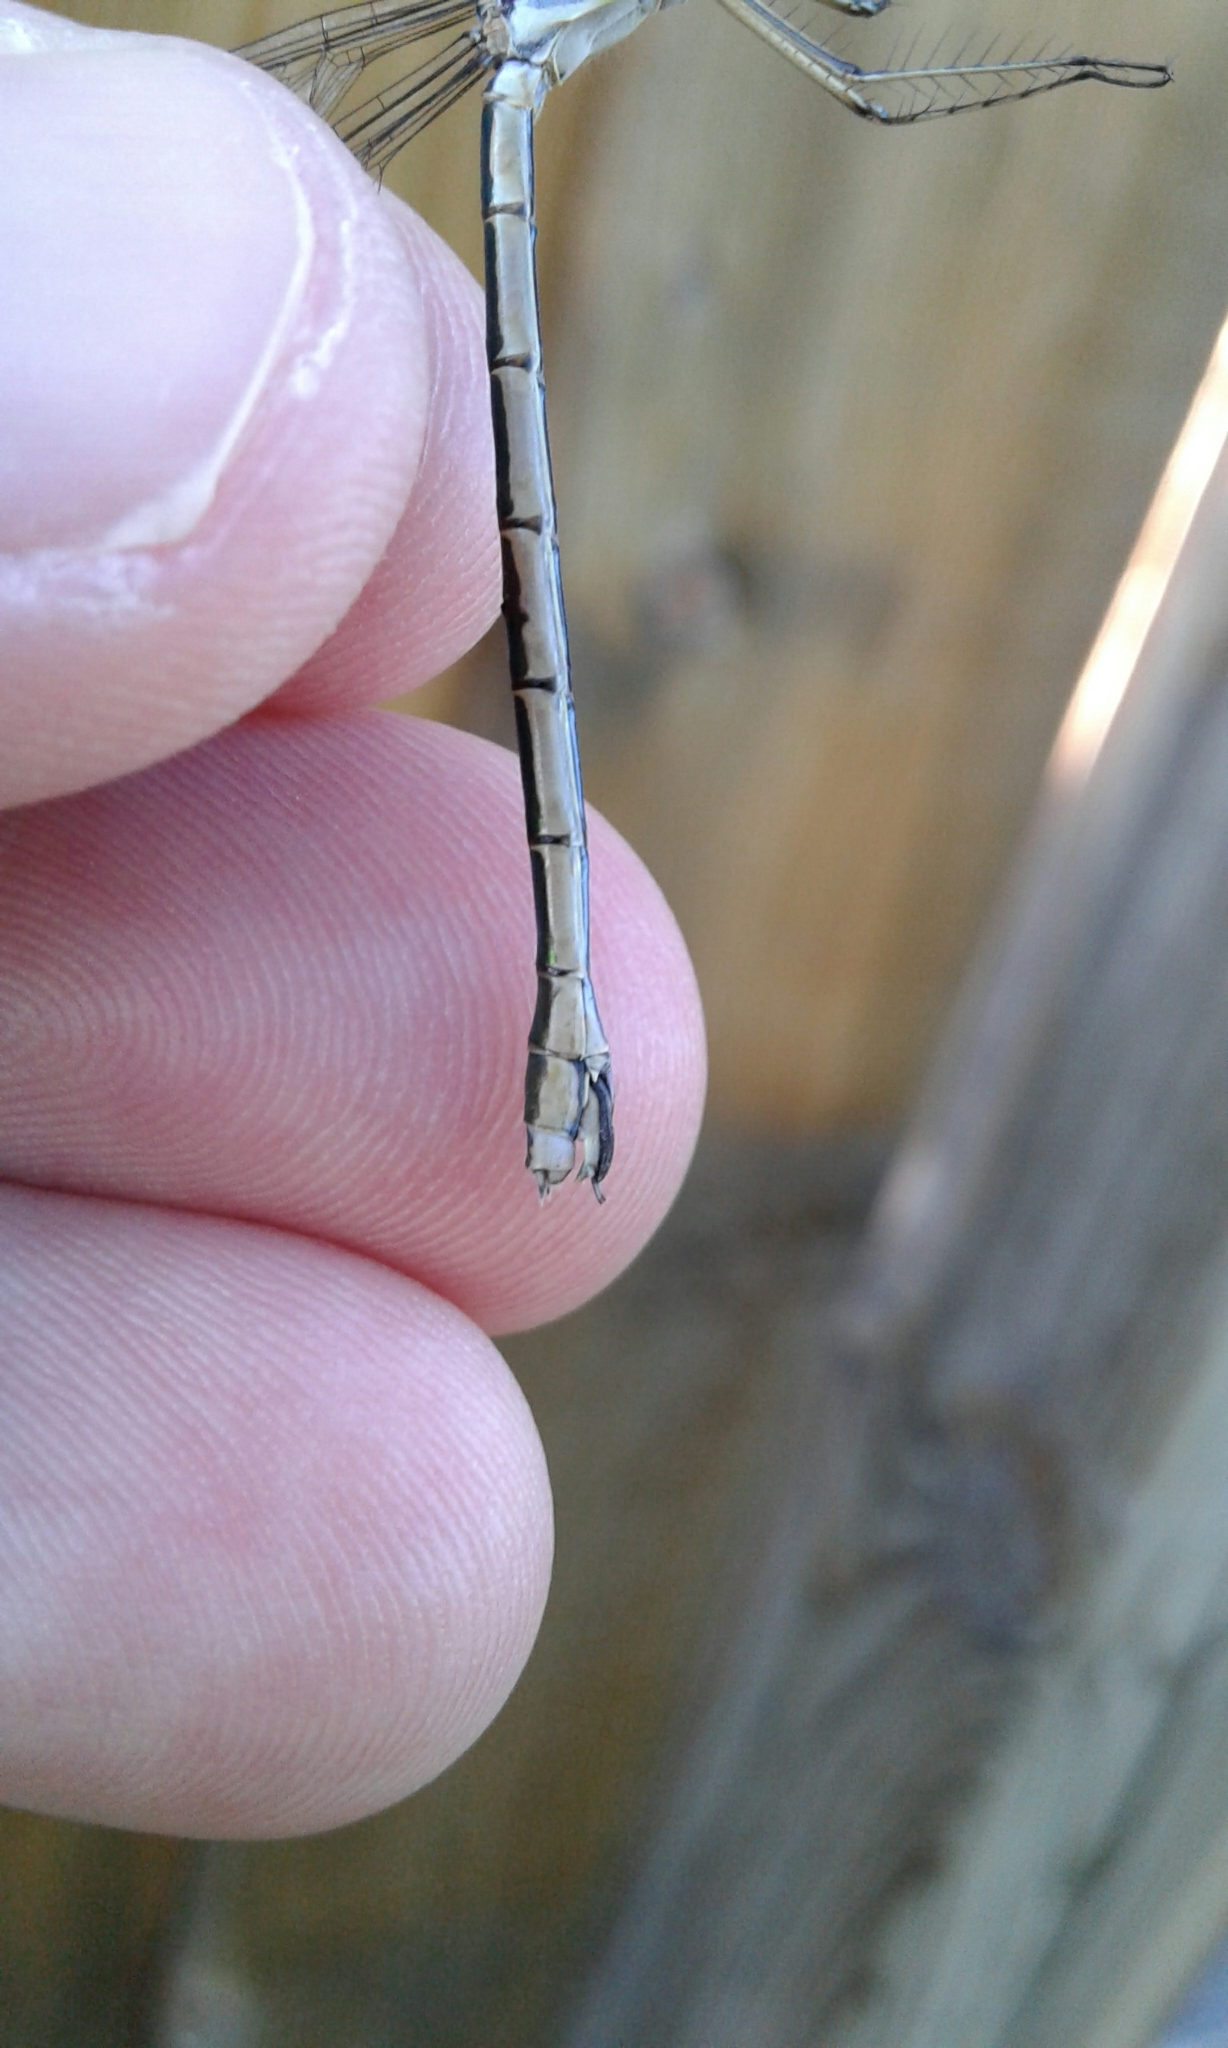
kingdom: Animalia
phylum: Arthropoda
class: Insecta
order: Odonata
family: Lestidae
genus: Lestes
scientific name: Lestes dryas
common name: Scarce emerald damselfly
